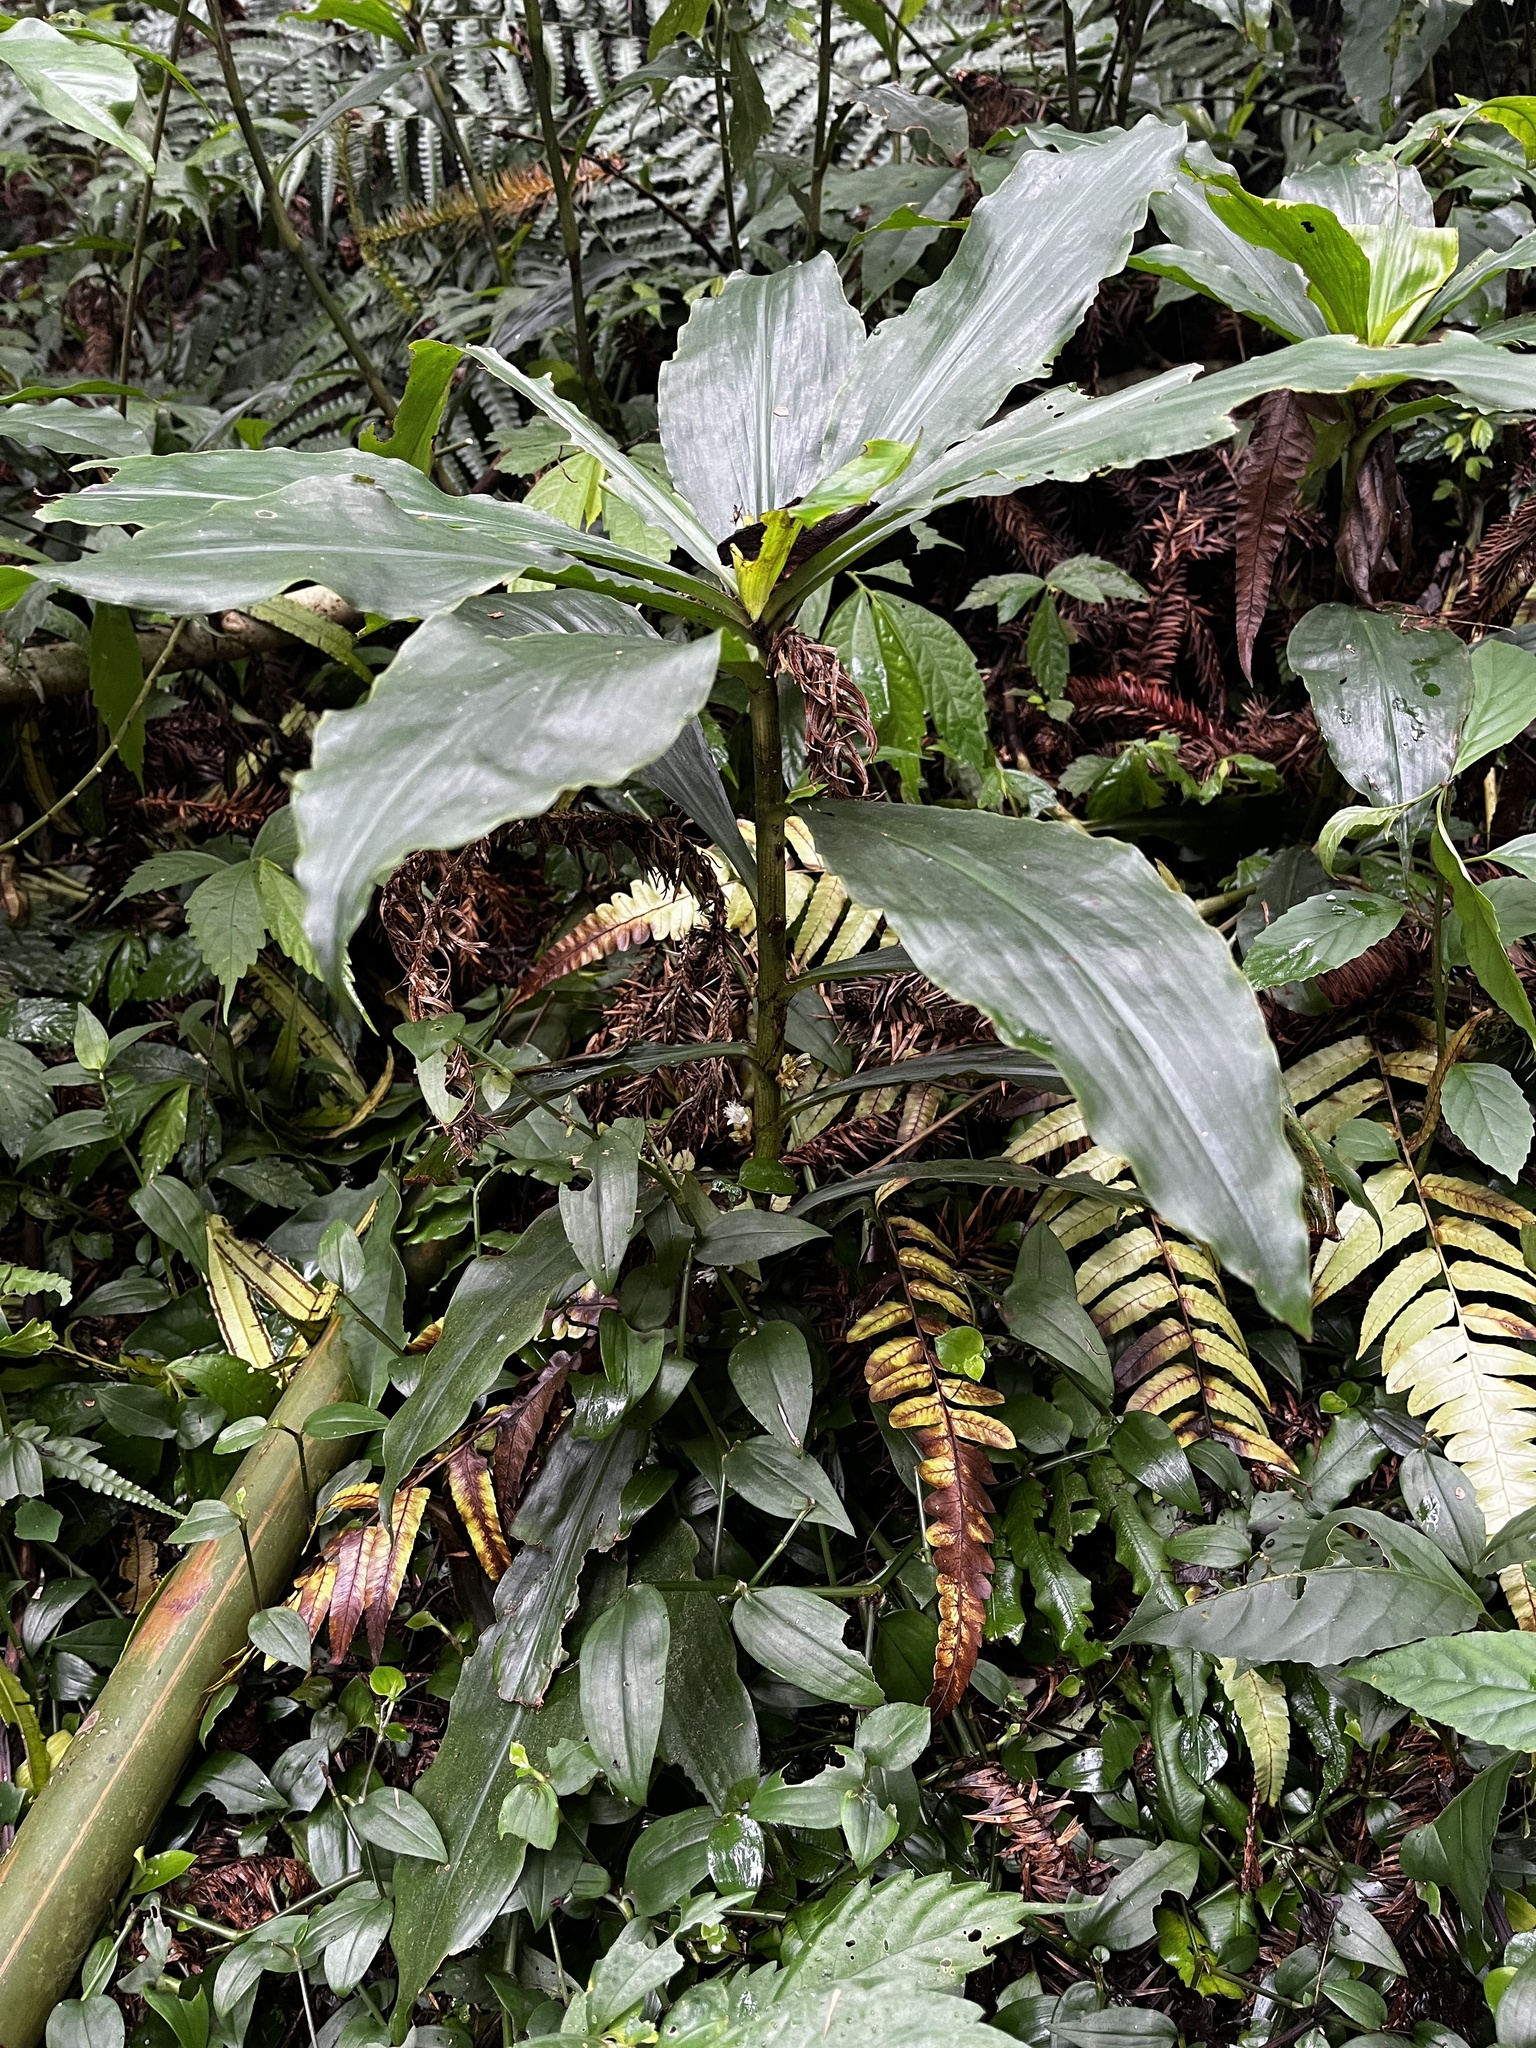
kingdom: Plantae
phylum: Tracheophyta
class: Liliopsida
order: Commelinales
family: Commelinaceae
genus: Amischotolype
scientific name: Amischotolype glabrata
